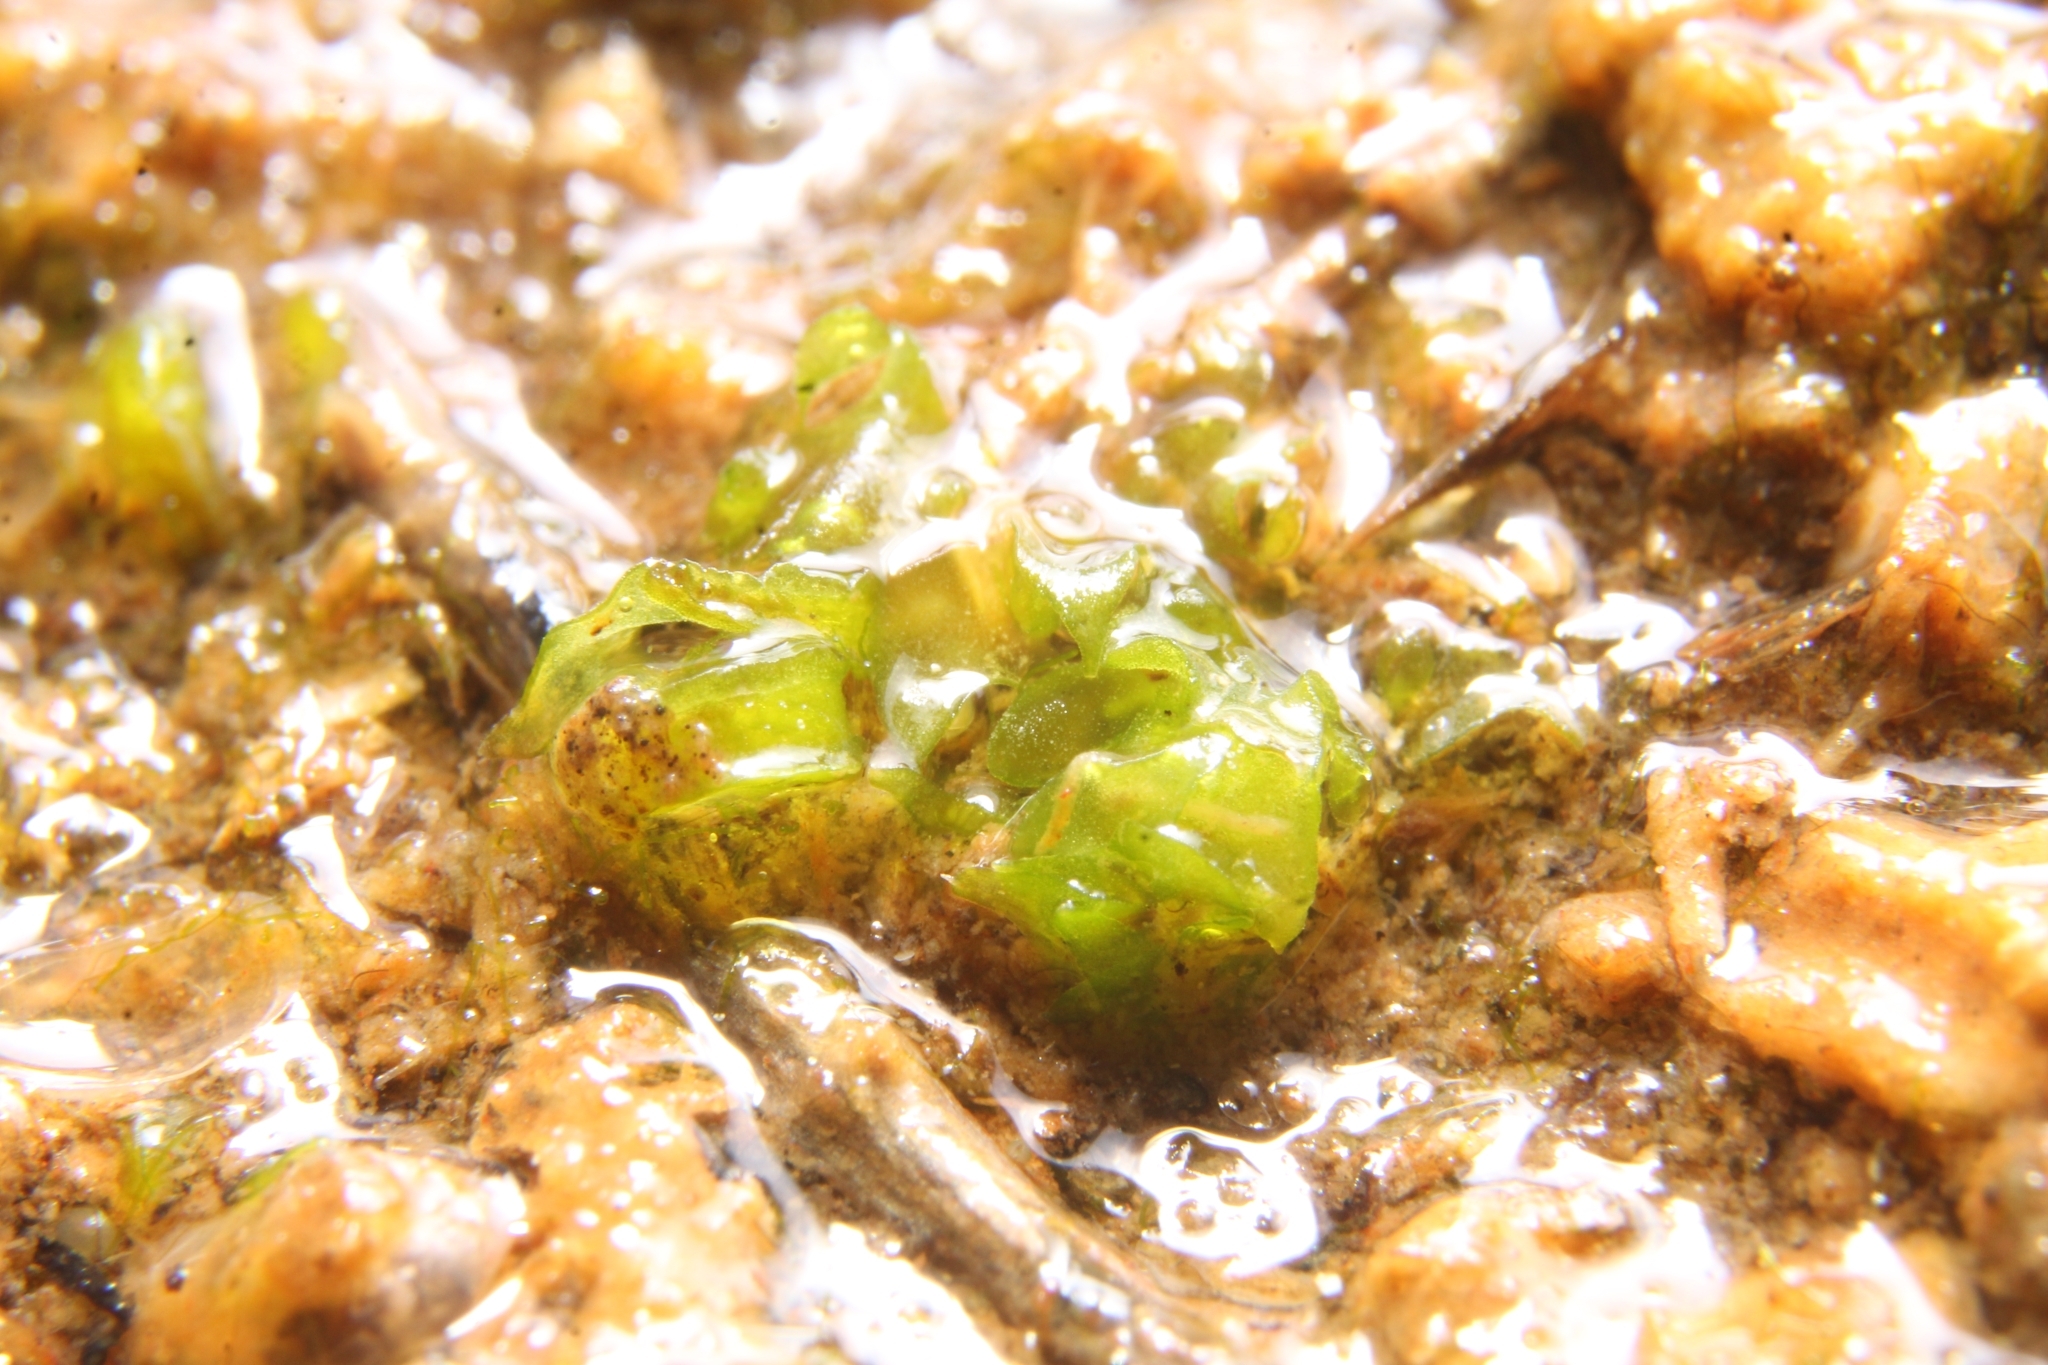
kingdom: Plantae
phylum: Marchantiophyta
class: Marchantiopsida
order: Sphaerocarpales
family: Riellaceae
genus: Austroriella
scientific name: Austroriella salta
